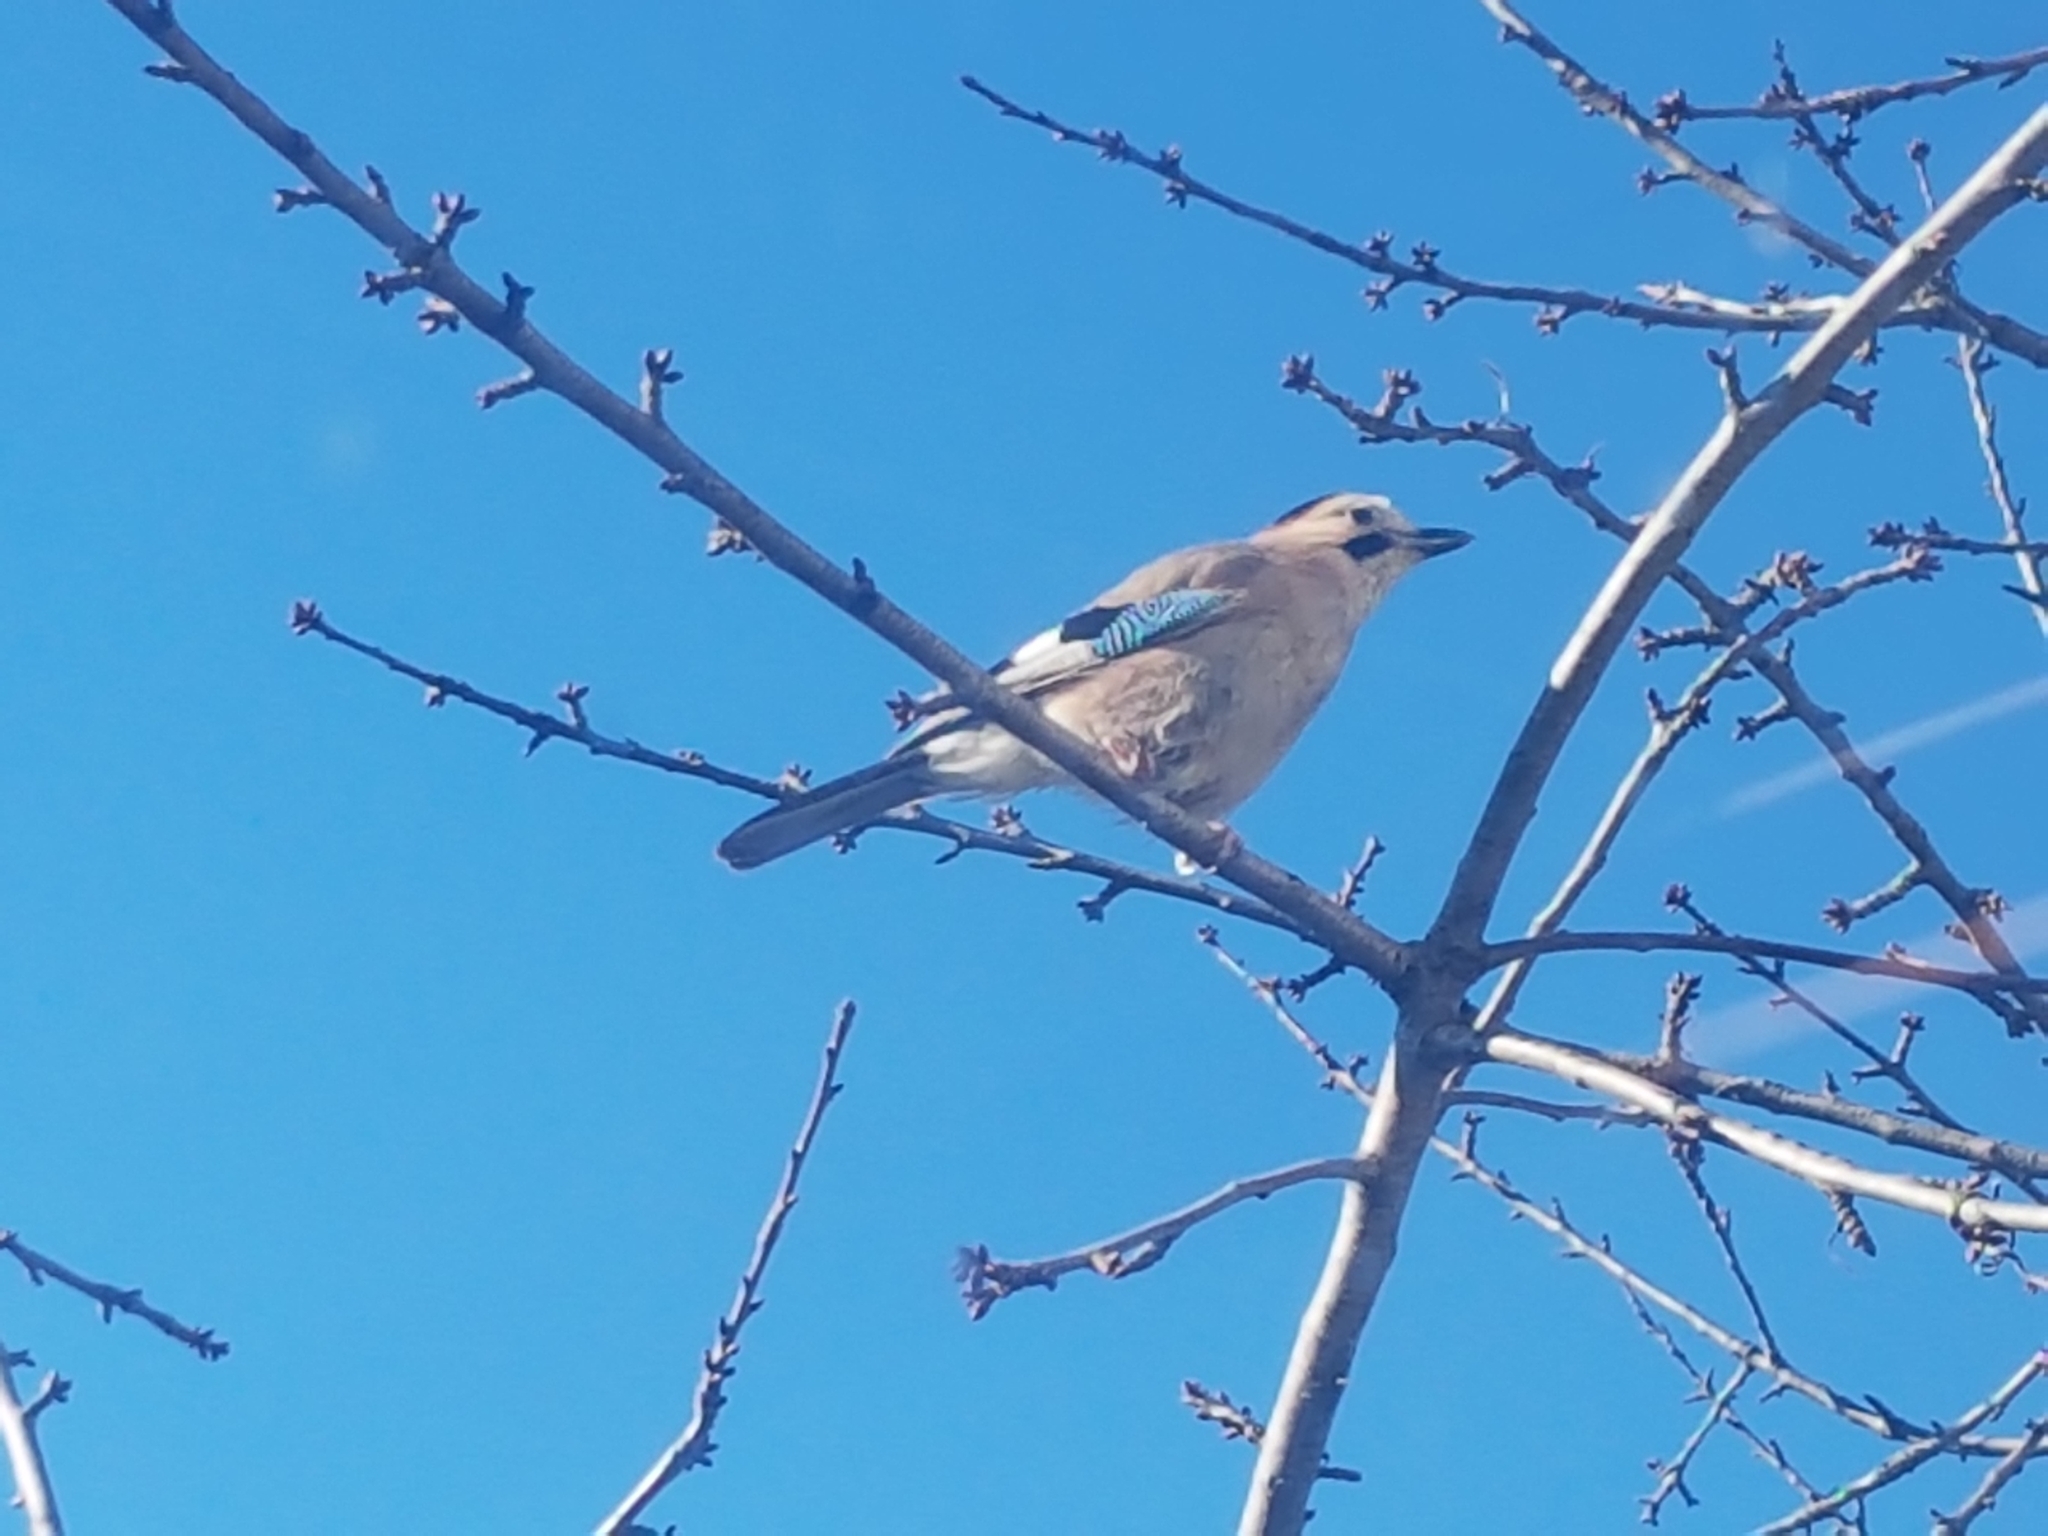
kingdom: Animalia
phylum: Chordata
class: Aves
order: Passeriformes
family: Corvidae
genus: Garrulus
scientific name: Garrulus glandarius
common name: Eurasian jay
